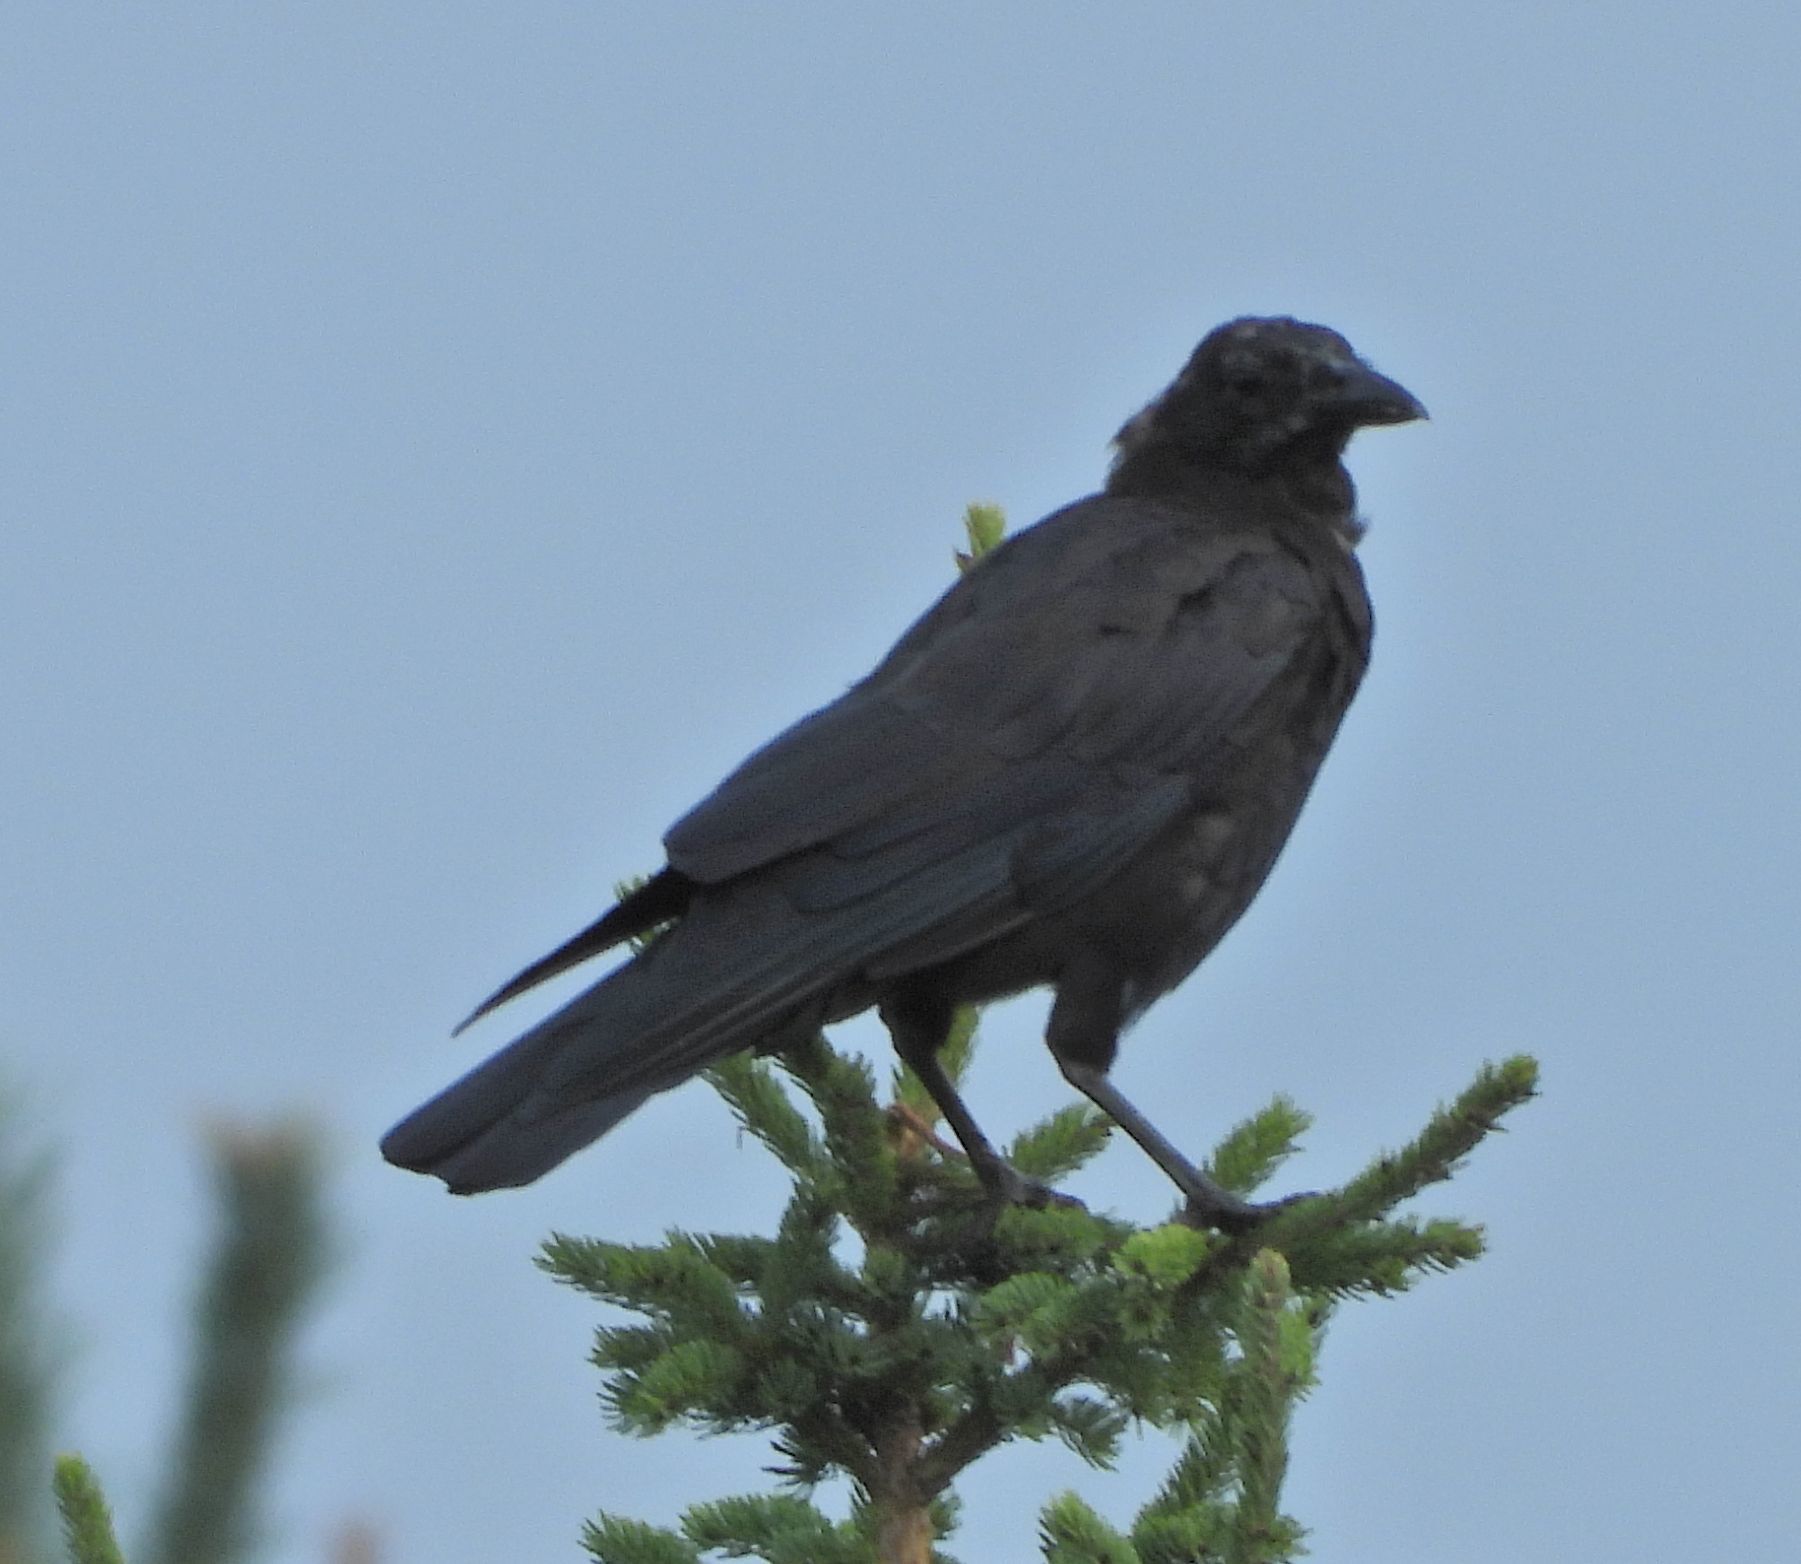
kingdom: Animalia
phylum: Chordata
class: Aves
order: Passeriformes
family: Corvidae
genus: Corvus
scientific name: Corvus brachyrhynchos
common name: American crow
